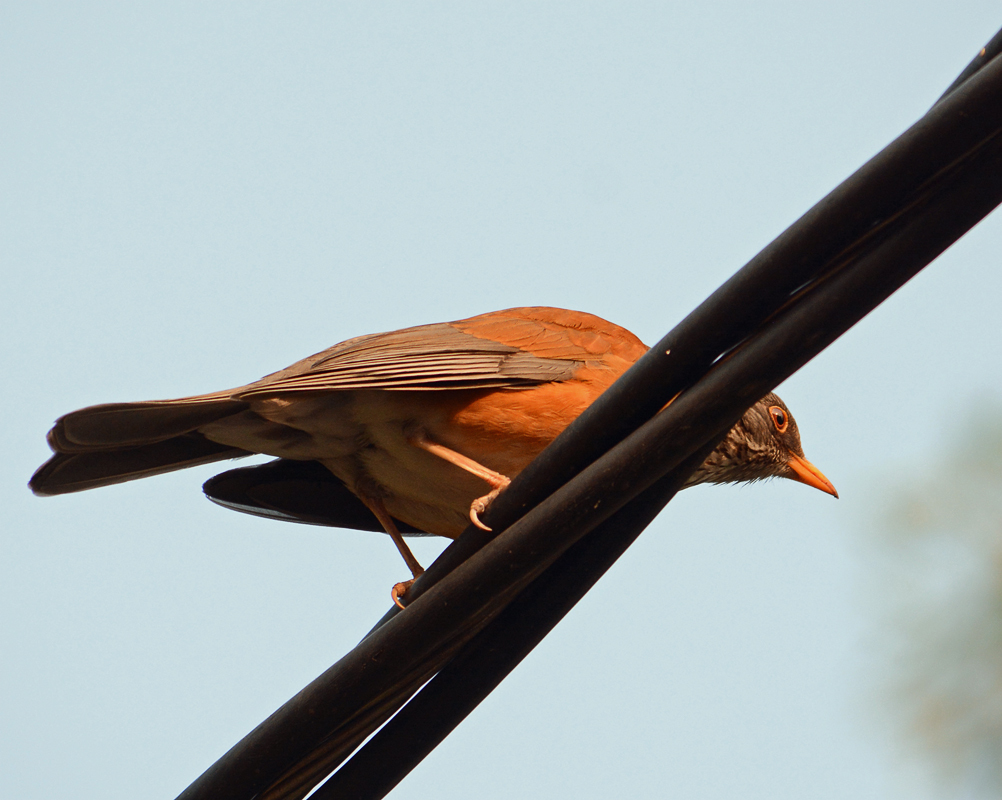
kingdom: Animalia
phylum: Chordata
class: Aves
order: Passeriformes
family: Turdidae
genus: Turdus
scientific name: Turdus rufopalliatus
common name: Rufous-backed robin
